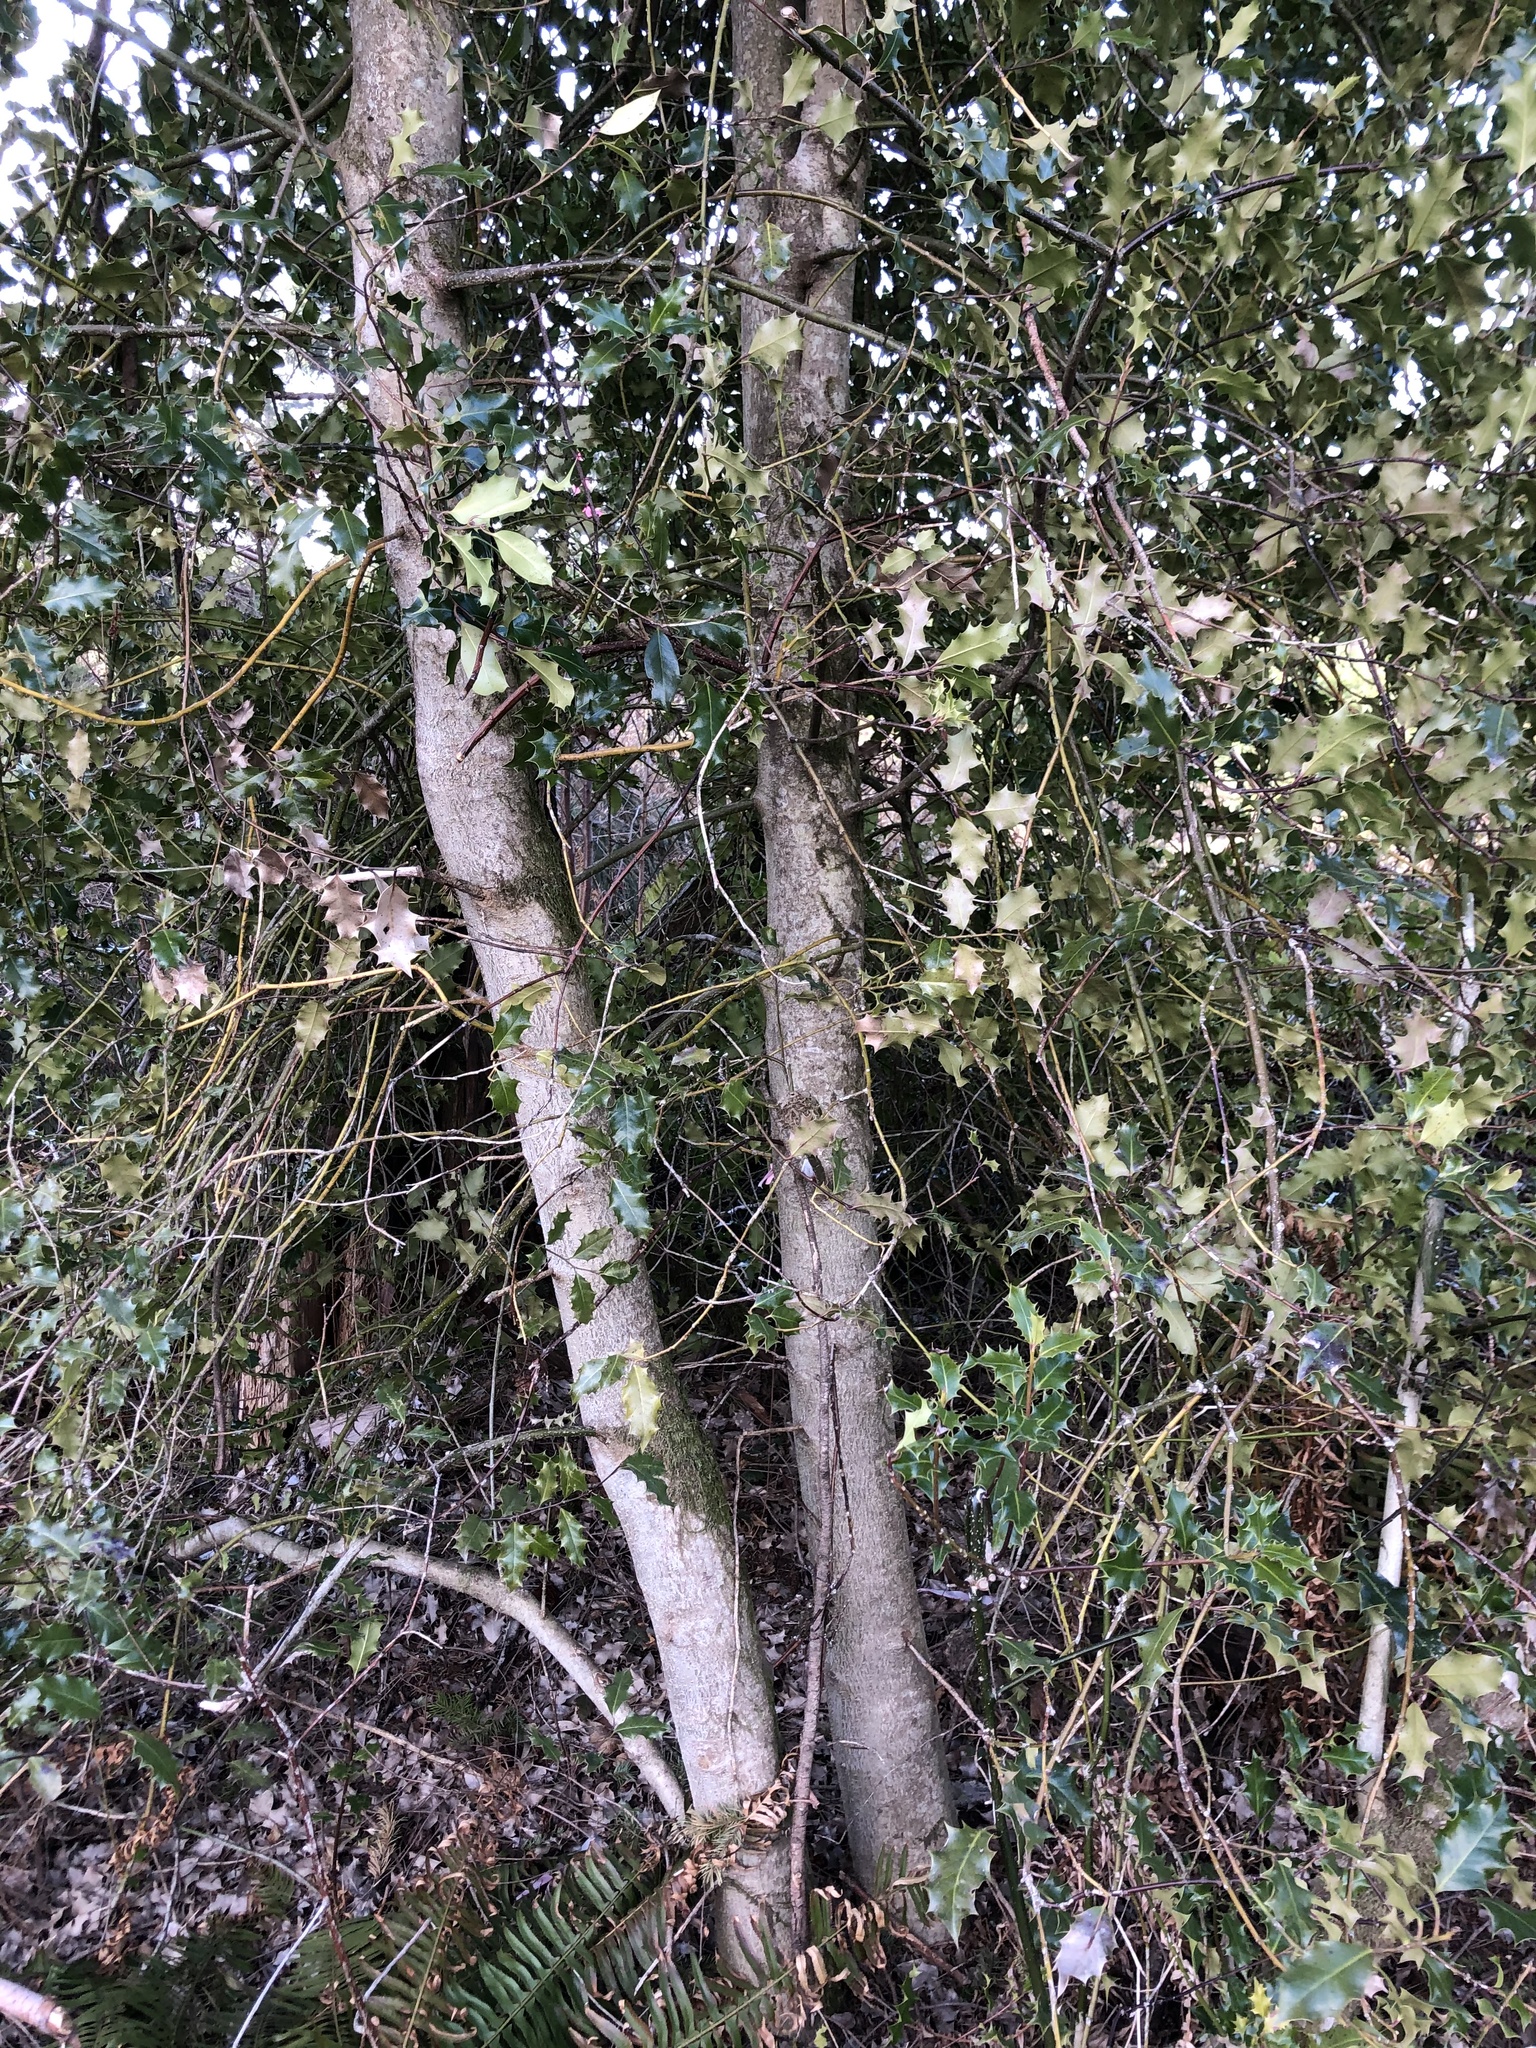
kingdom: Plantae
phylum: Tracheophyta
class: Magnoliopsida
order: Aquifoliales
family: Aquifoliaceae
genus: Ilex
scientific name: Ilex aquifolium
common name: English holly
